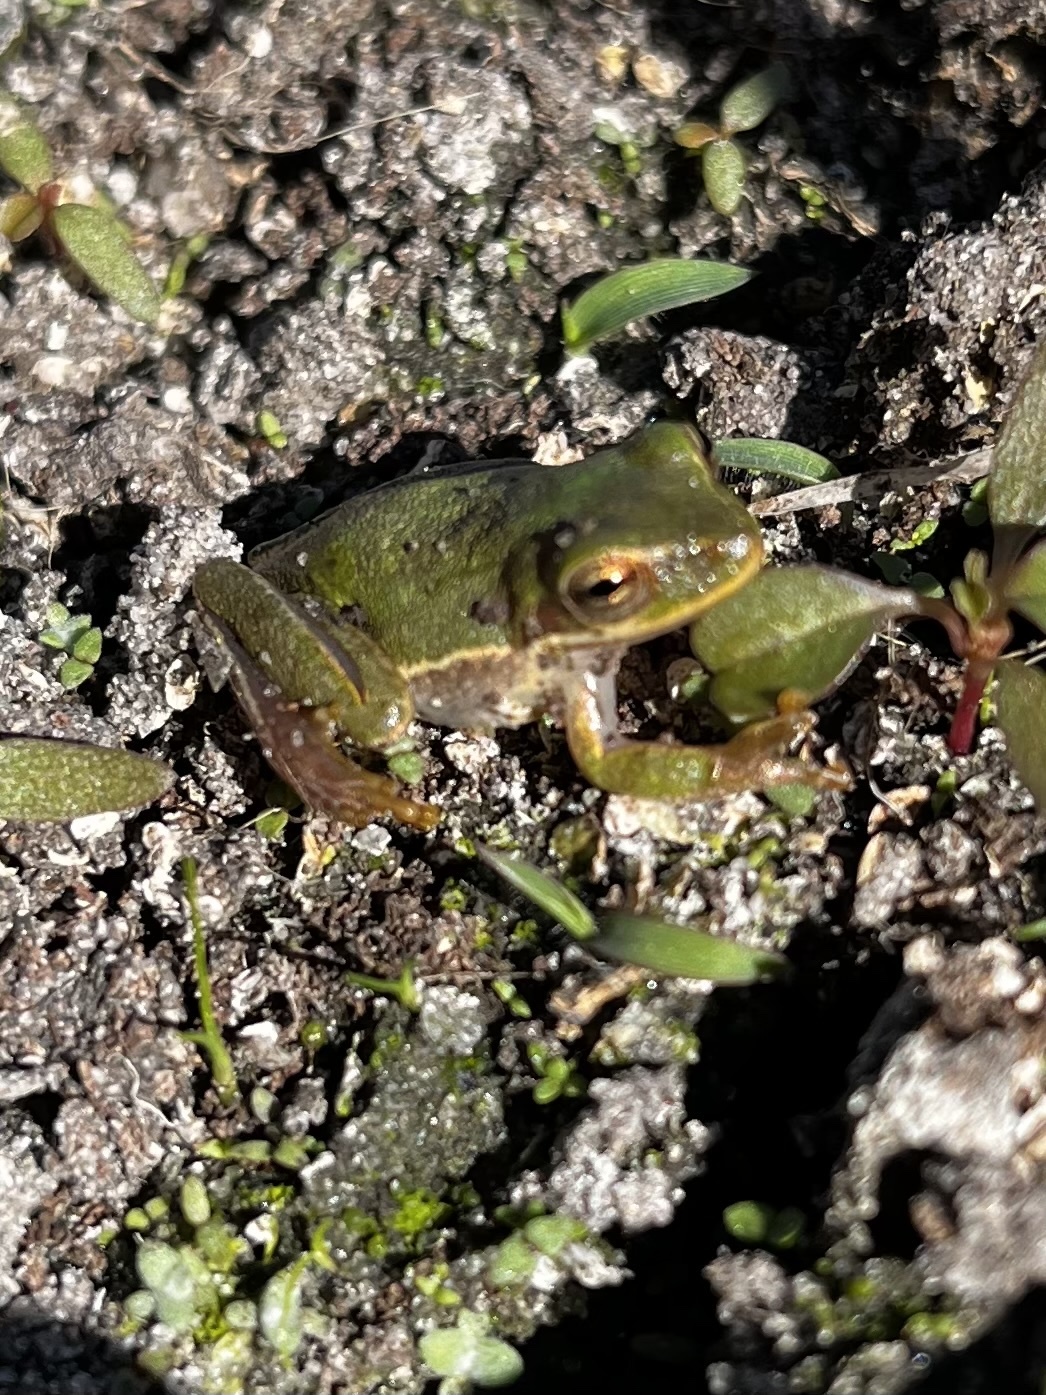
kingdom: Animalia
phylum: Chordata
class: Amphibia
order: Anura
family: Hylidae
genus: Dryophytes
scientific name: Dryophytes squirellus
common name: Squirrel treefrog
